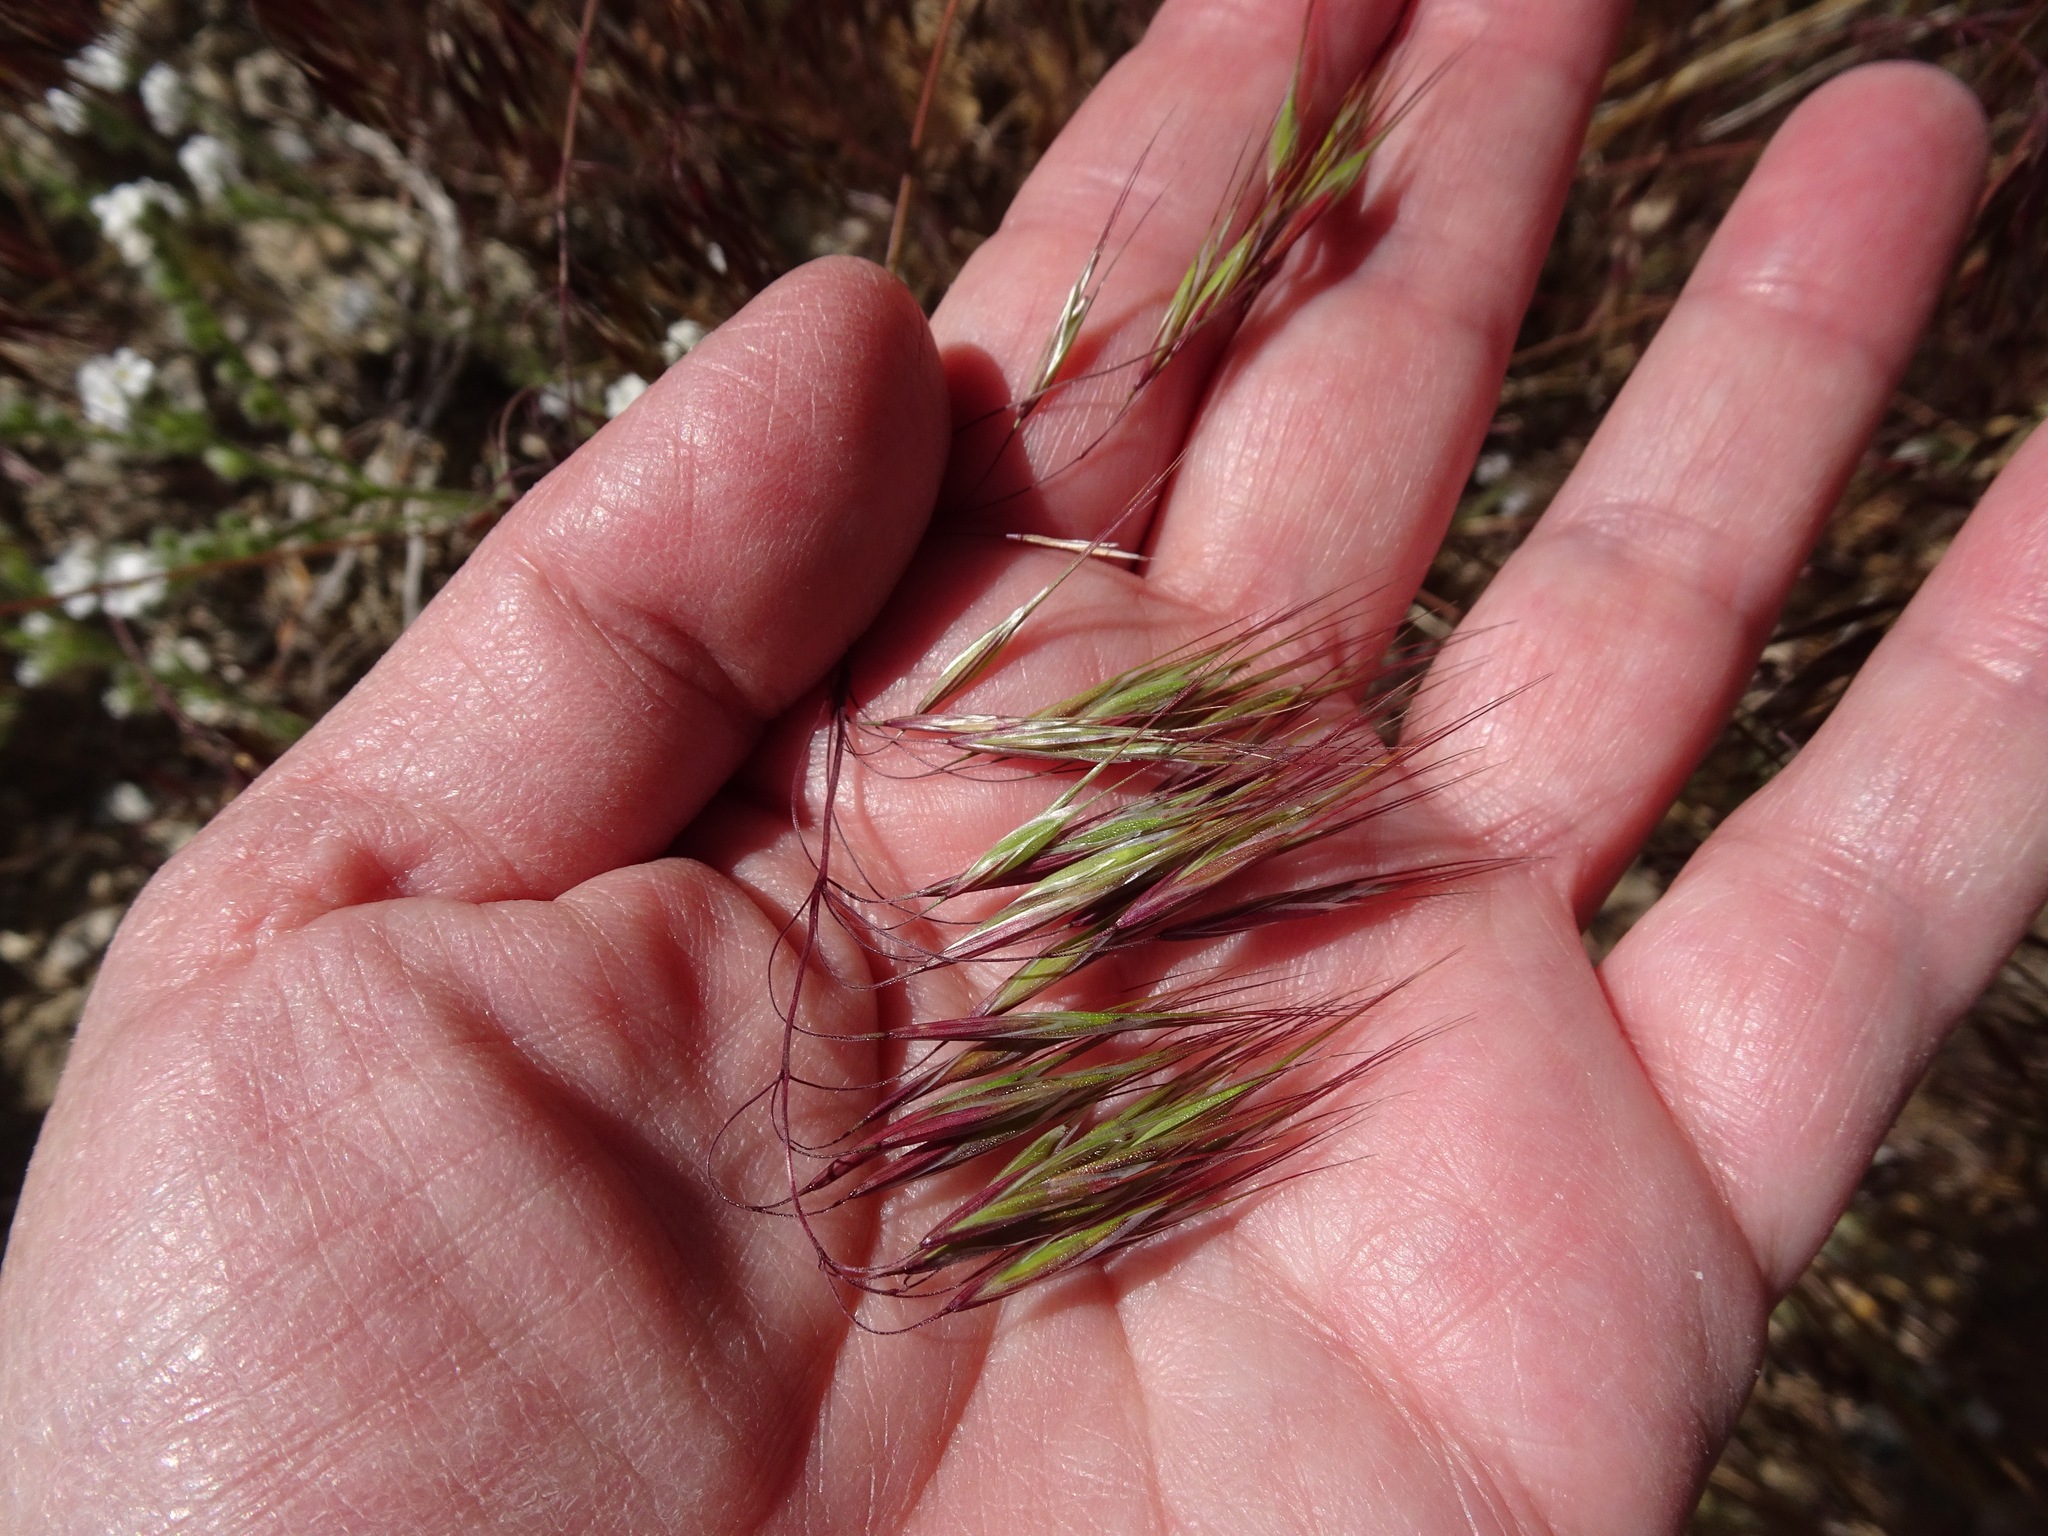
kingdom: Plantae
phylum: Tracheophyta
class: Liliopsida
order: Poales
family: Poaceae
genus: Bromus
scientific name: Bromus tectorum
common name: Cheatgrass
